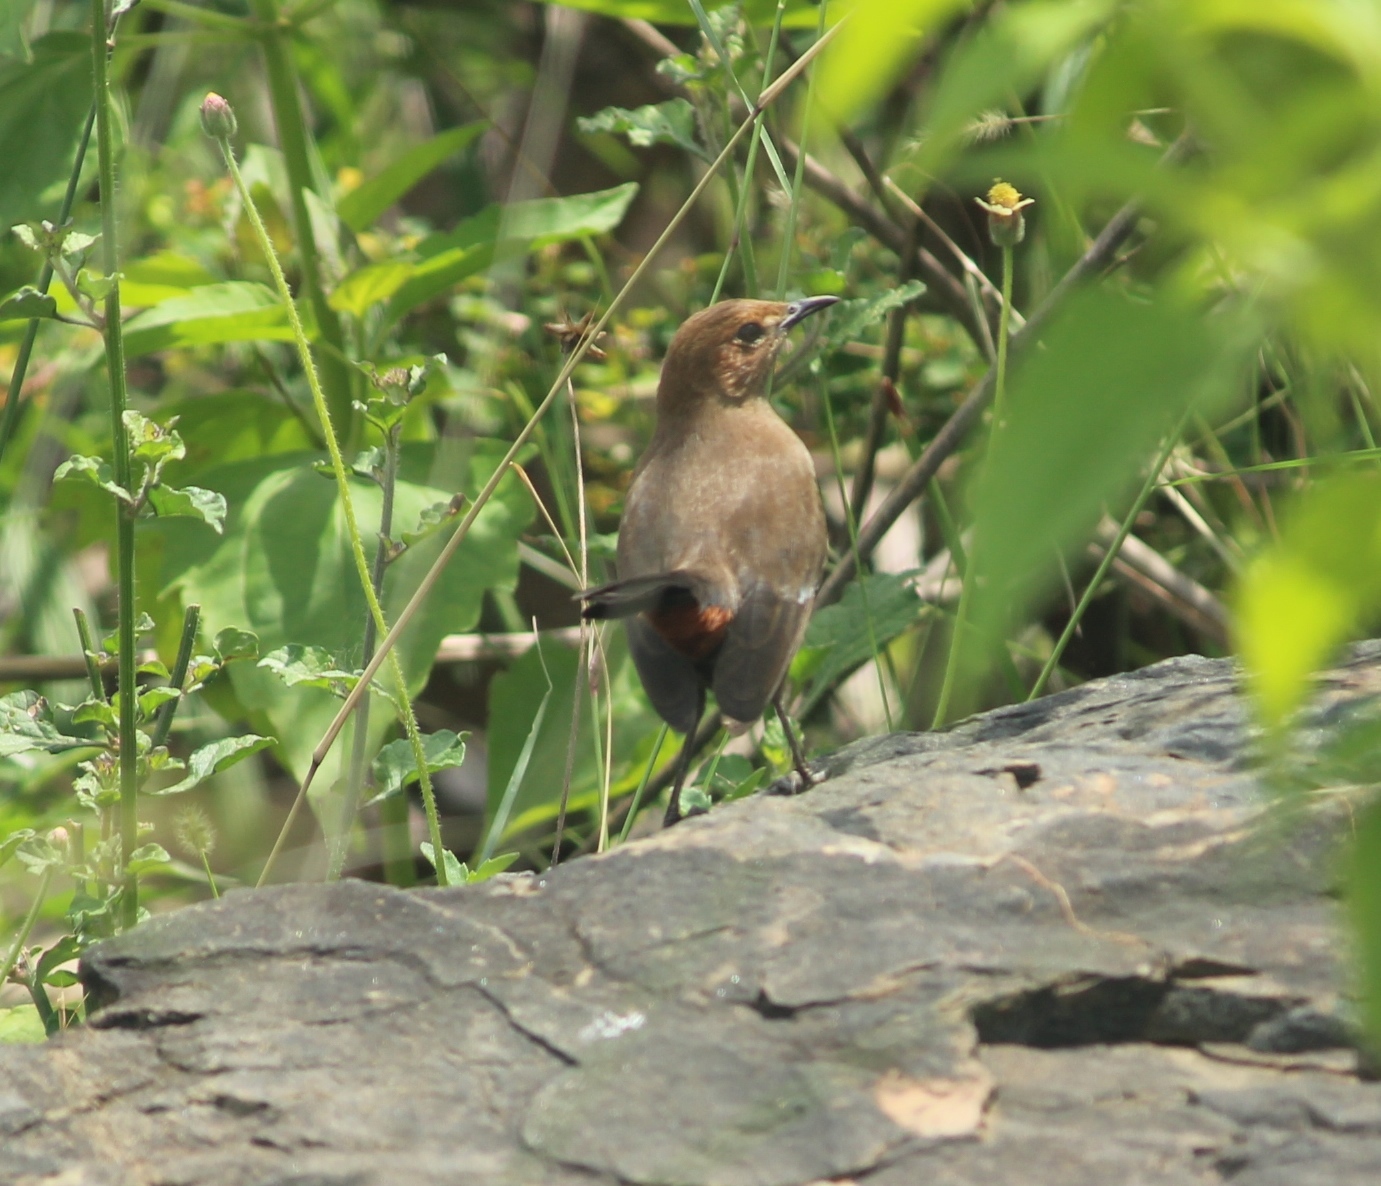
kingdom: Animalia
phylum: Chordata
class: Aves
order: Passeriformes
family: Muscicapidae
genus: Saxicoloides
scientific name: Saxicoloides fulicatus
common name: Indian robin
